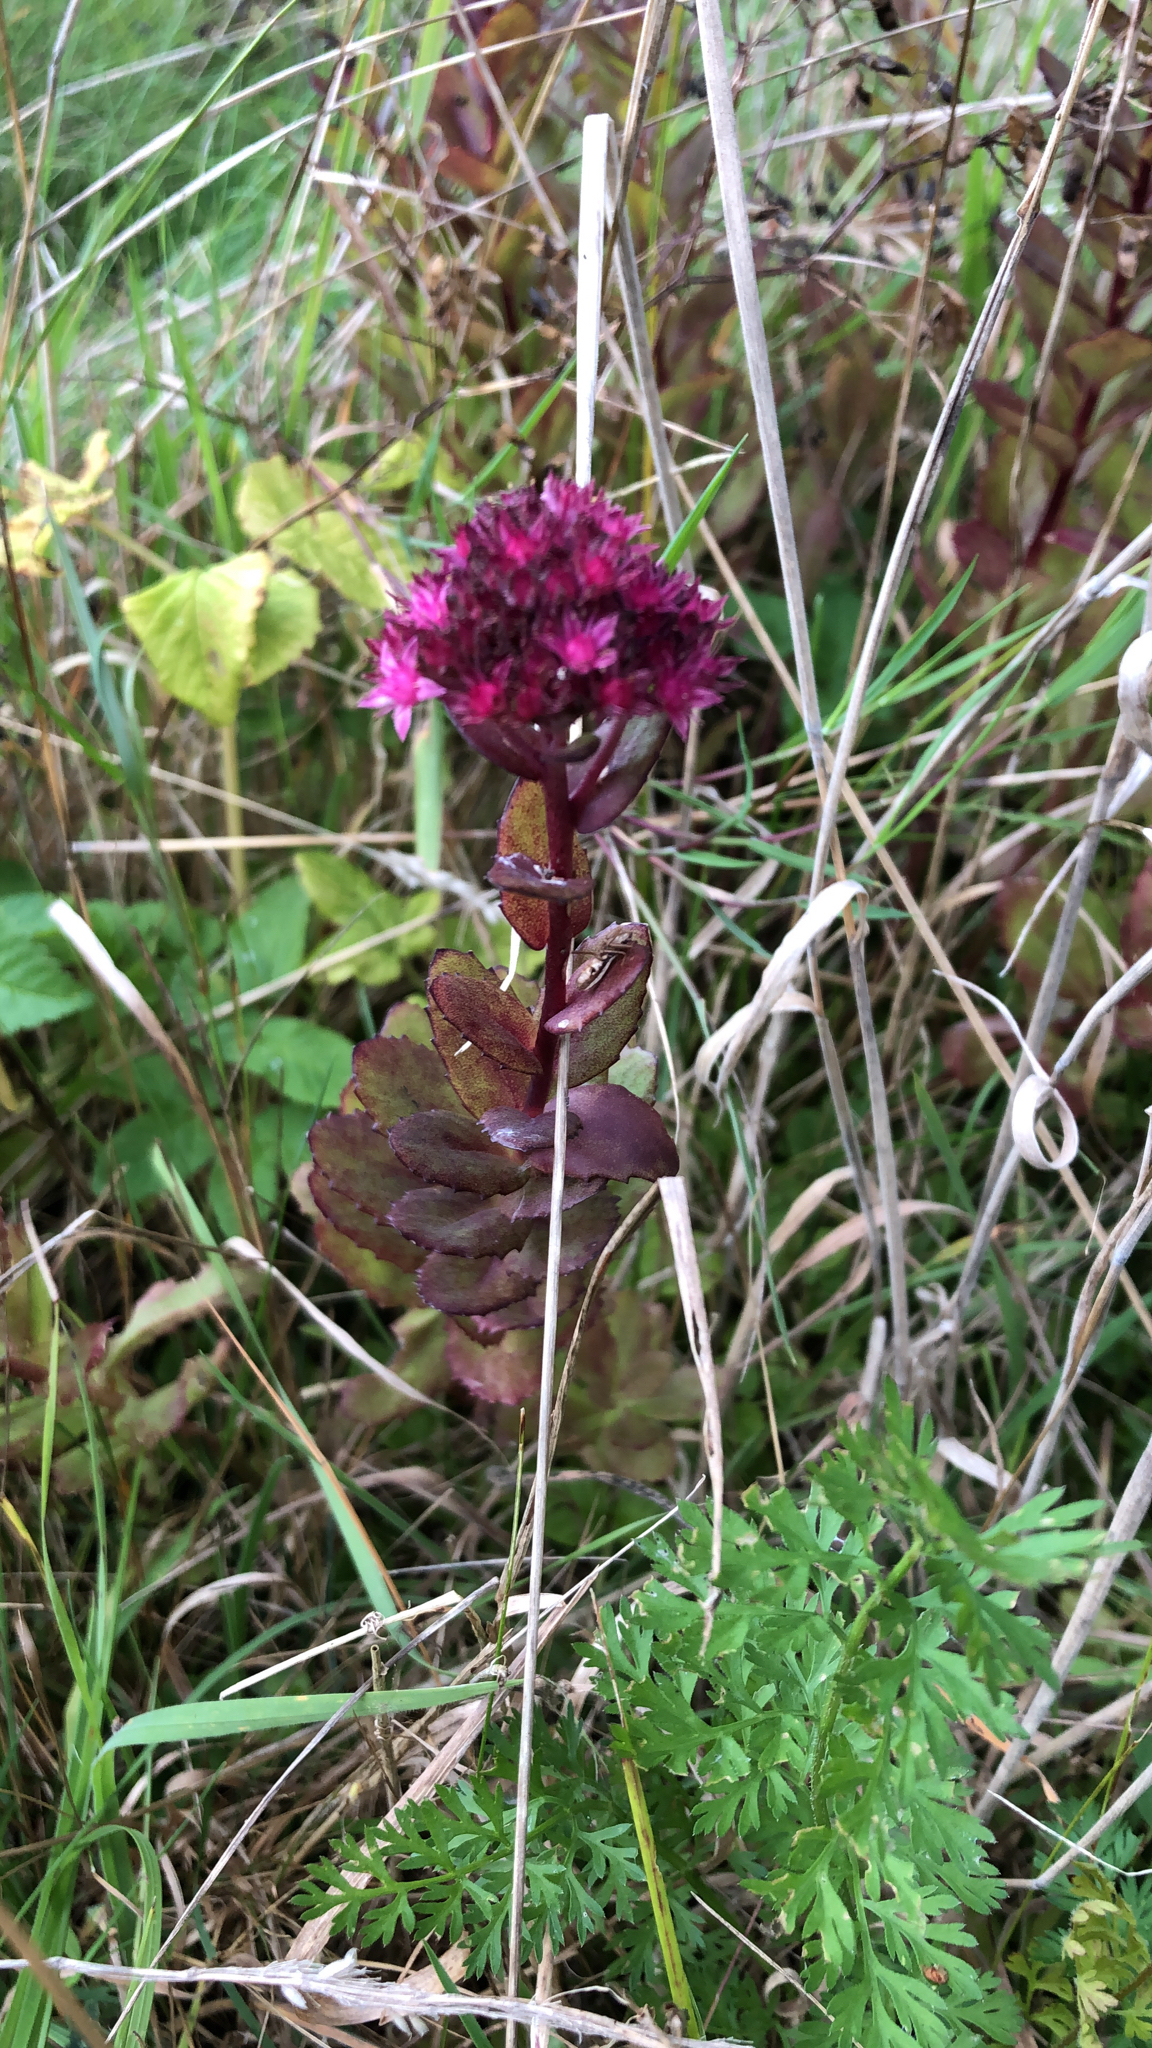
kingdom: Plantae
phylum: Tracheophyta
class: Magnoliopsida
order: Saxifragales
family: Crassulaceae
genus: Hylotelephium
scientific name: Hylotelephium telephium
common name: Live-forever
